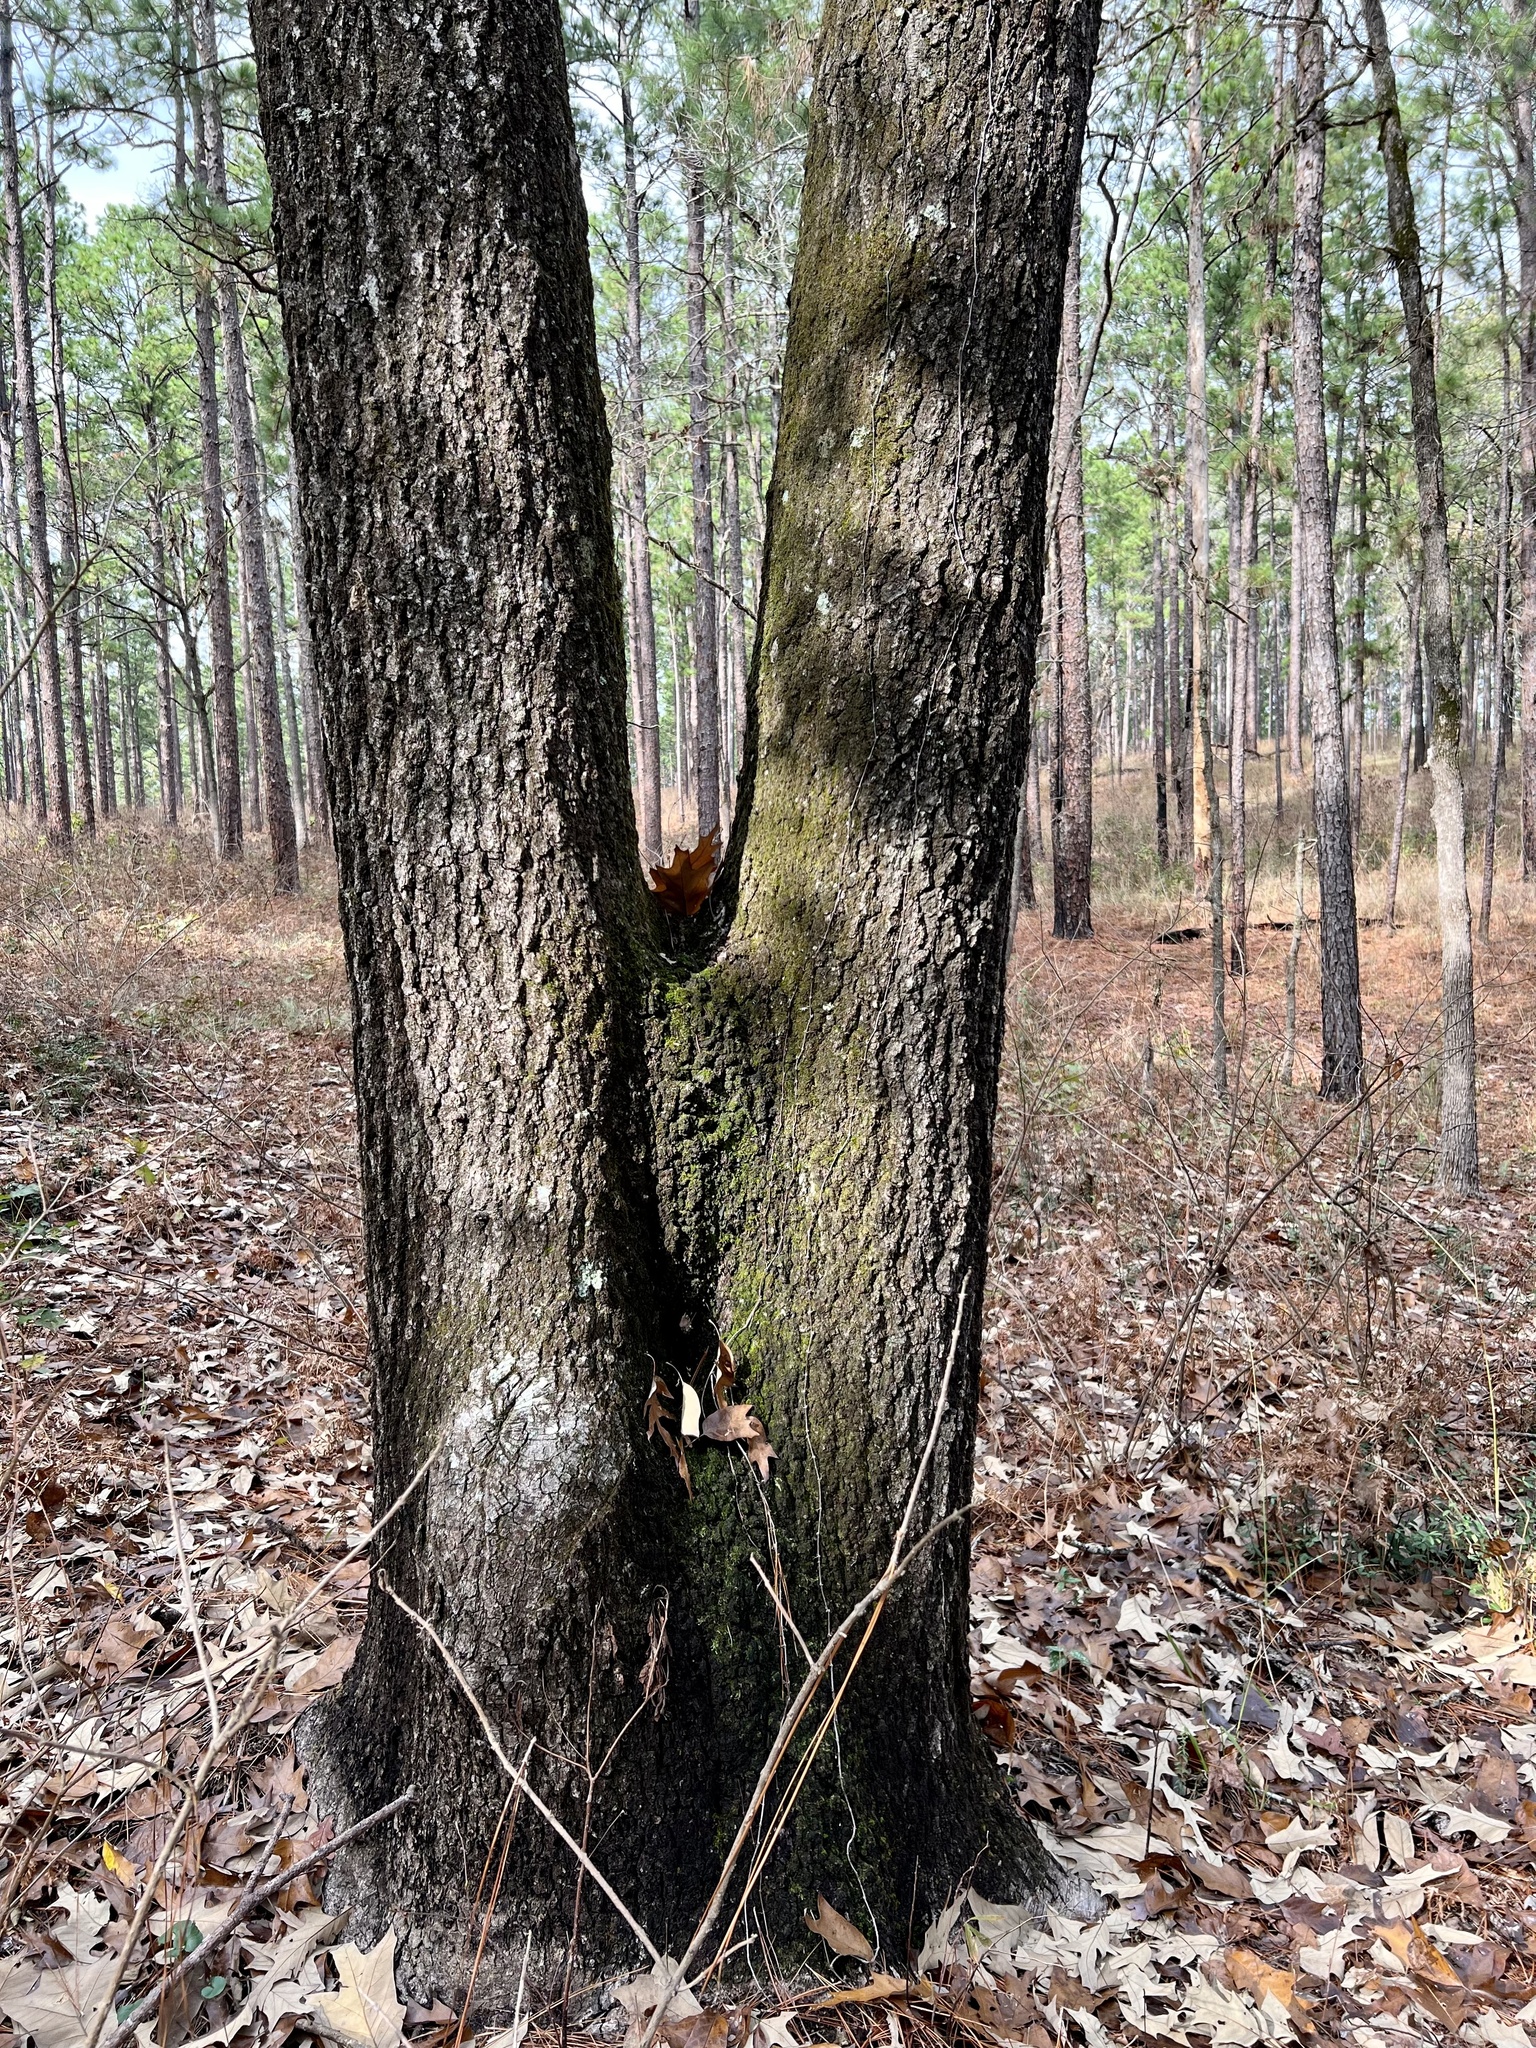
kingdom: Plantae
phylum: Tracheophyta
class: Magnoliopsida
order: Fagales
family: Fagaceae
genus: Quercus
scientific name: Quercus falcata
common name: Southern red oak
